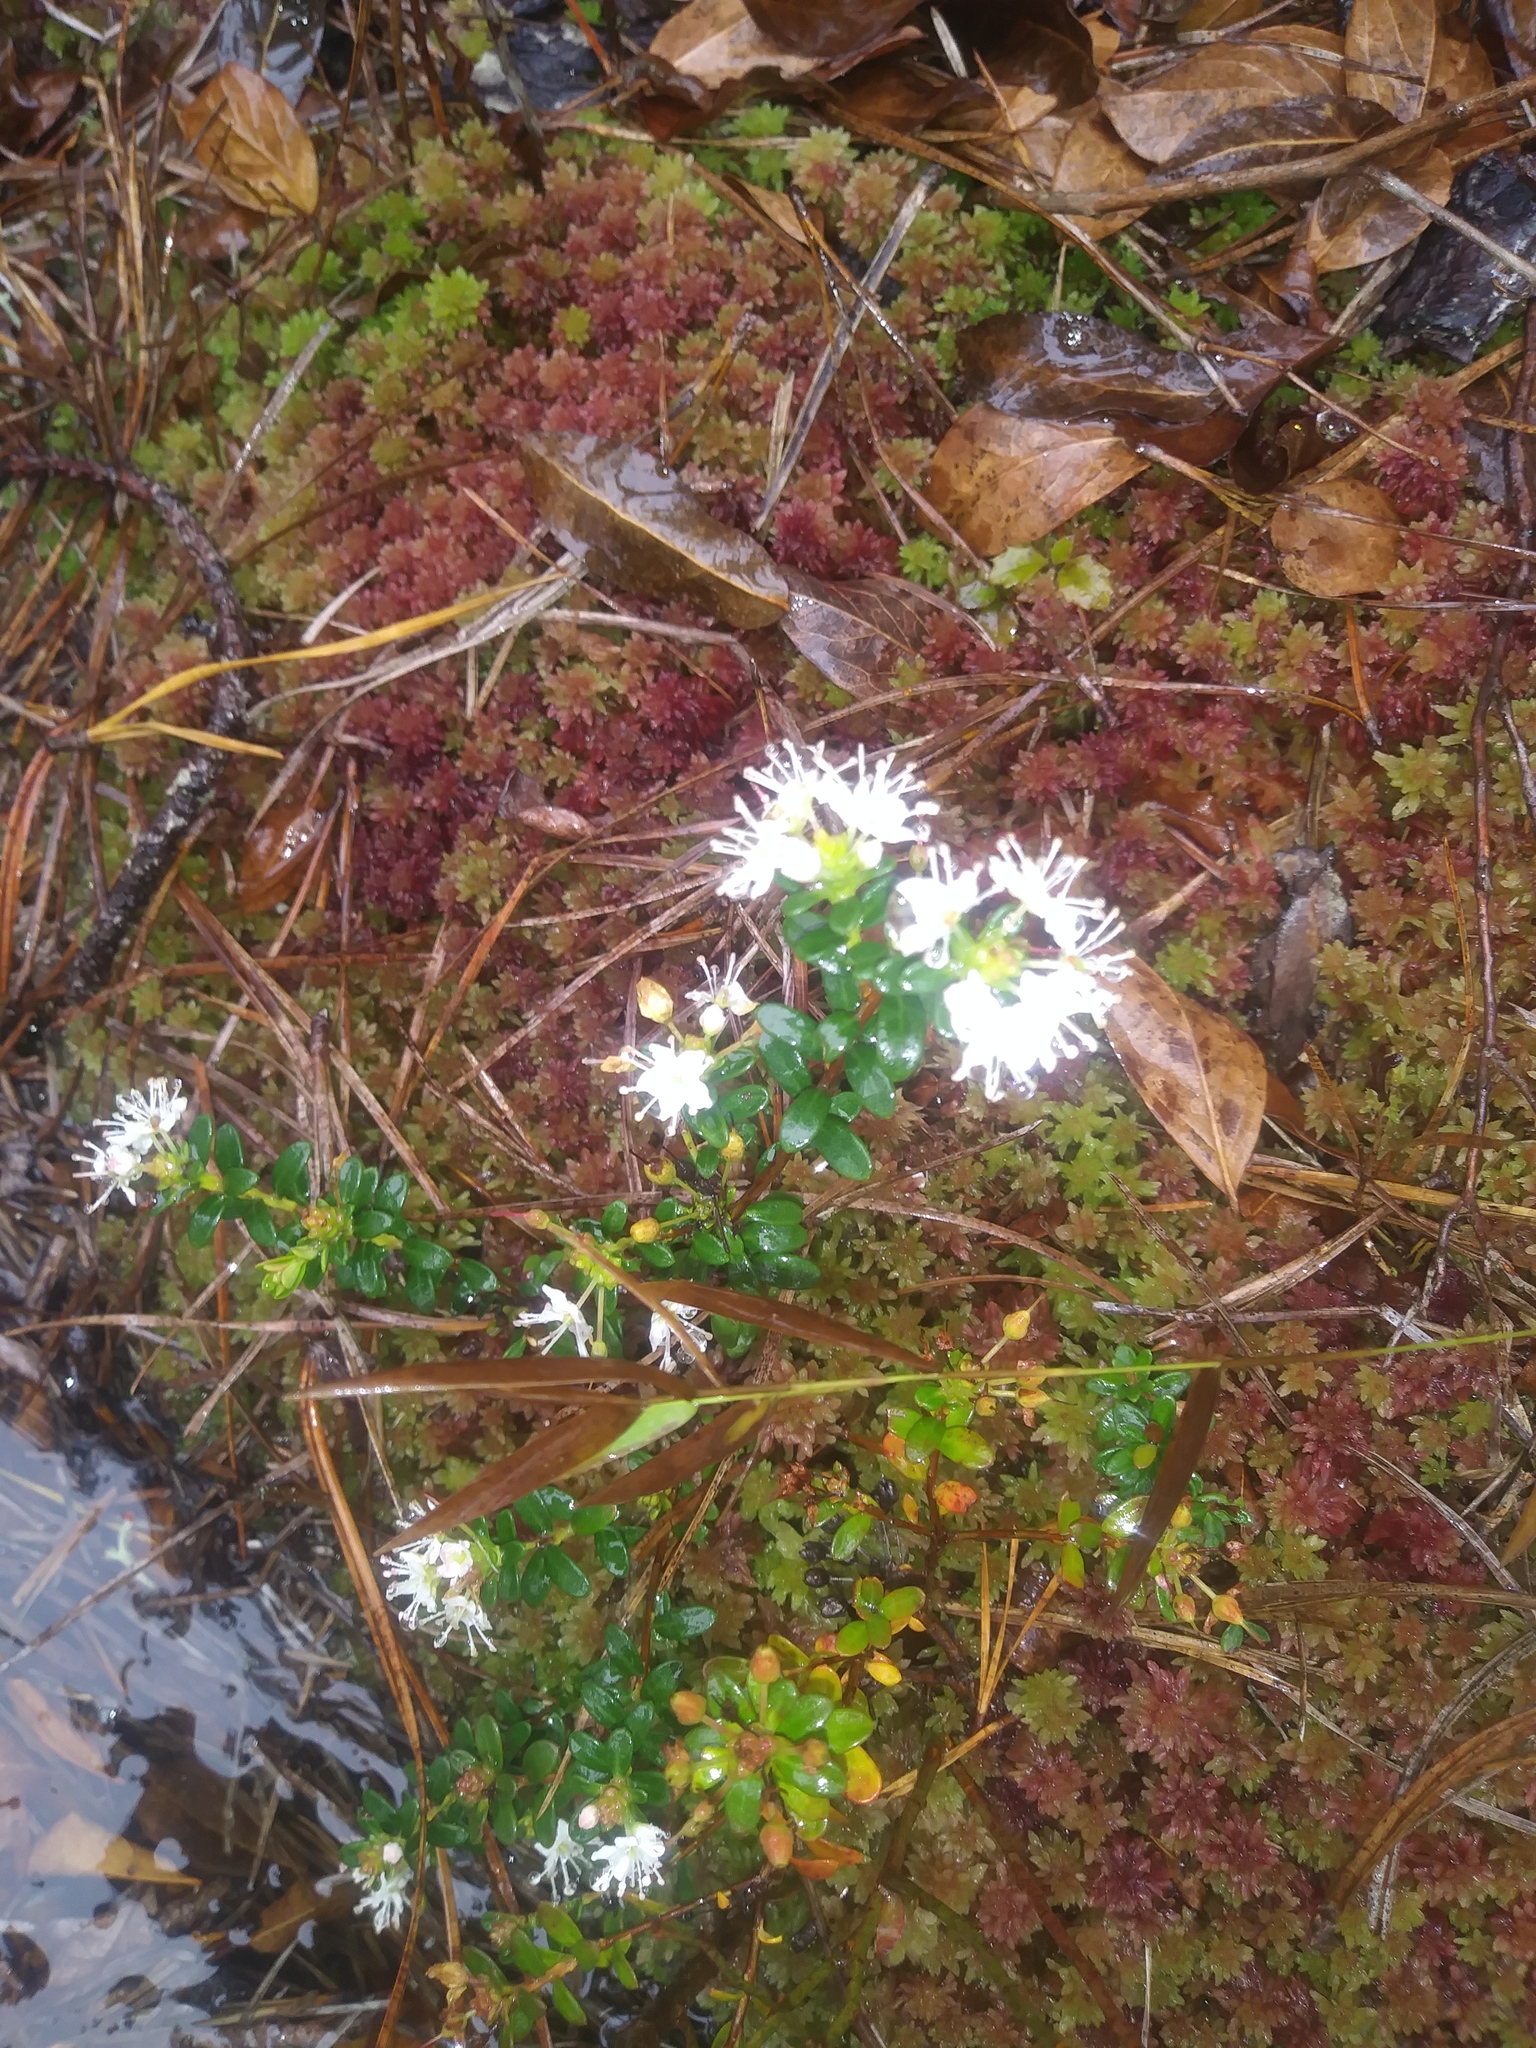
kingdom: Plantae
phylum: Tracheophyta
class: Magnoliopsida
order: Ericales
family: Ericaceae
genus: Kalmia
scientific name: Kalmia buxifolia
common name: Sandmyrtle
